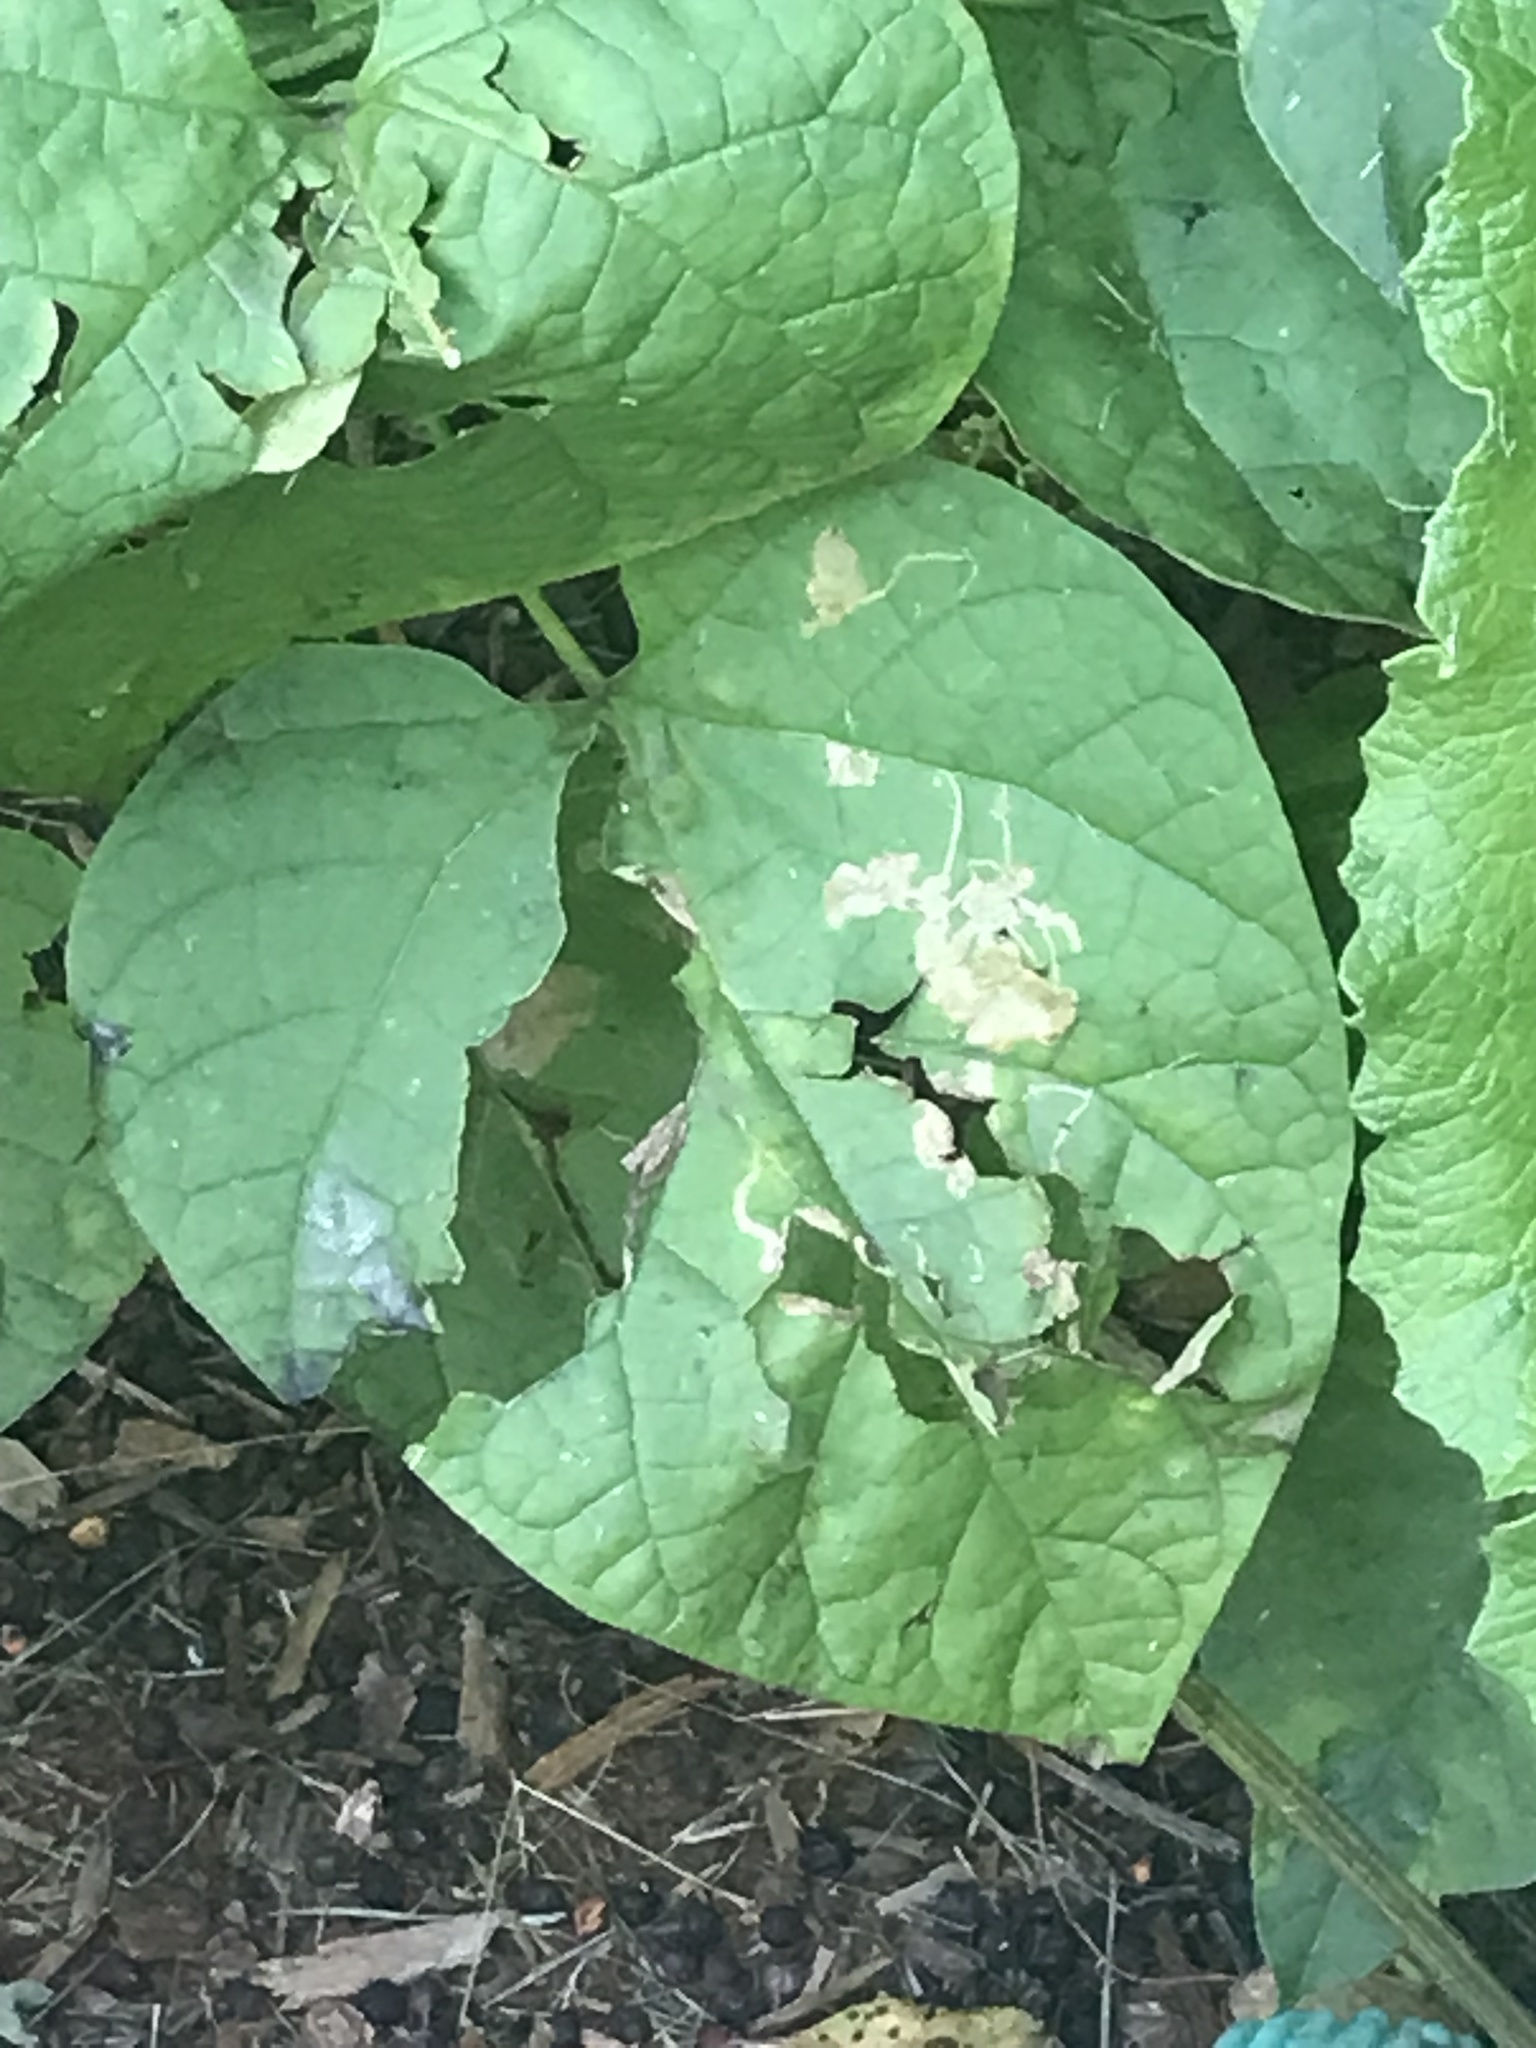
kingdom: Animalia
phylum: Arthropoda
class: Insecta
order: Diptera
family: Agromyzidae
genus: Amauromyza
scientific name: Amauromyza pleuralis
